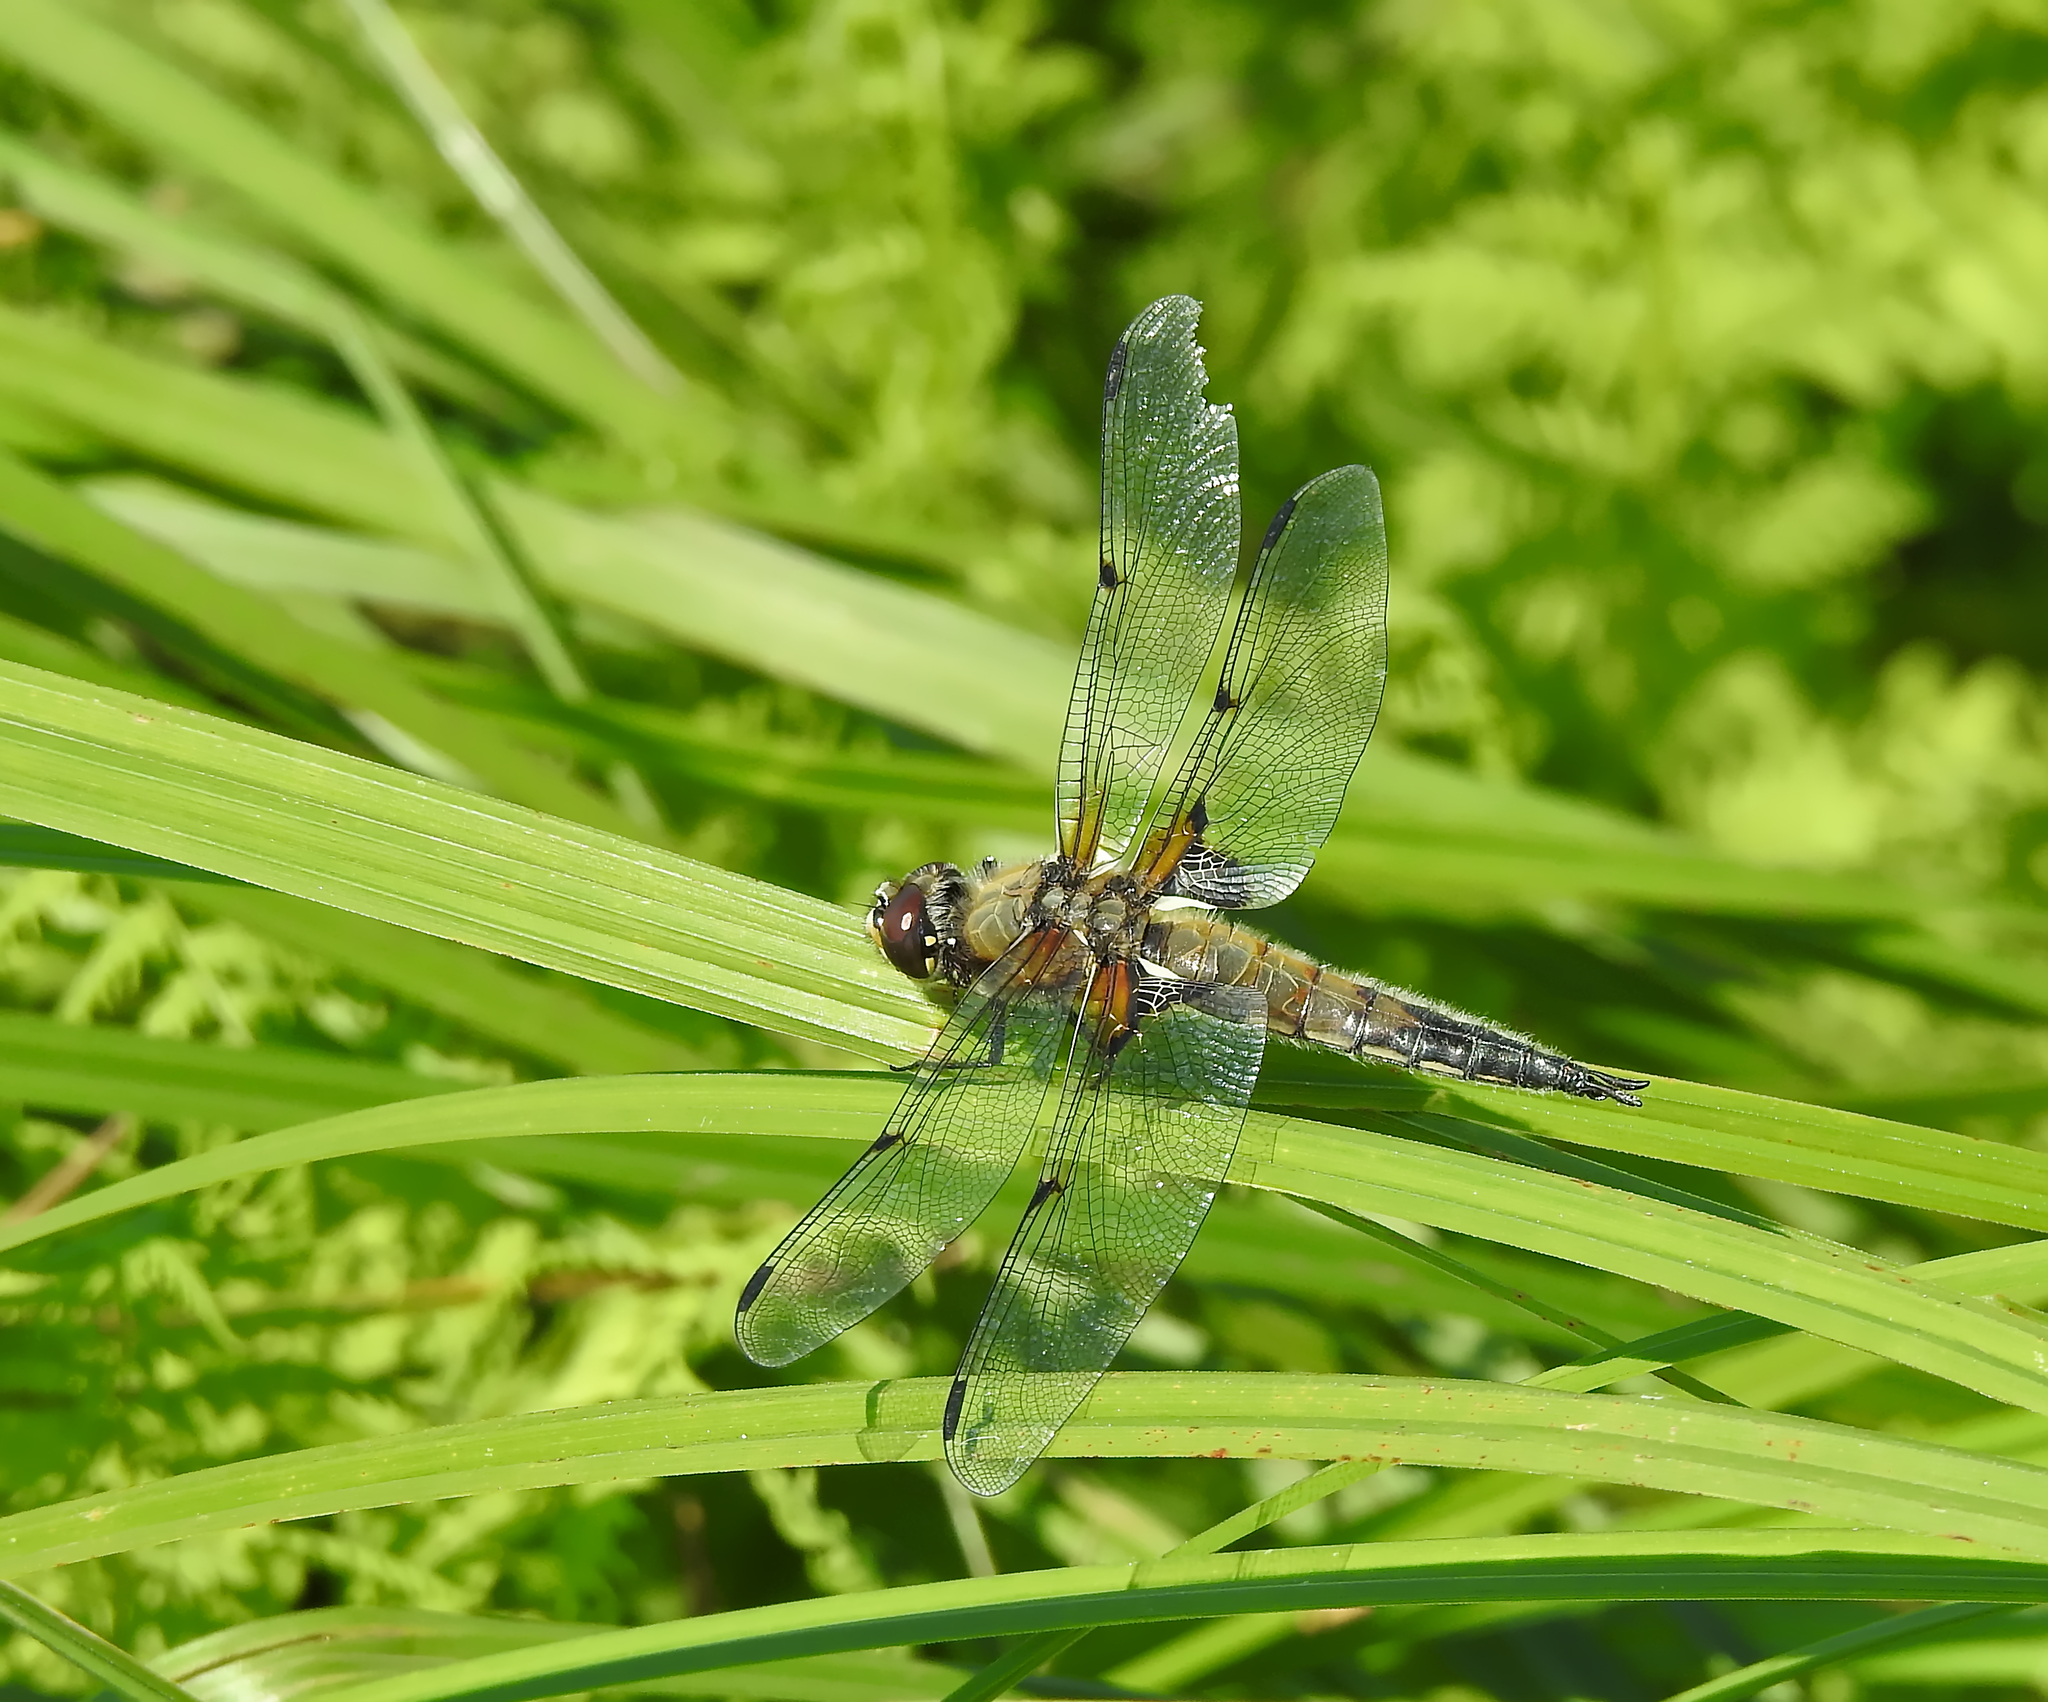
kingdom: Animalia
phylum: Arthropoda
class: Insecta
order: Odonata
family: Libellulidae
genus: Libellula
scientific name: Libellula quadrimaculata
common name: Four-spotted chaser
